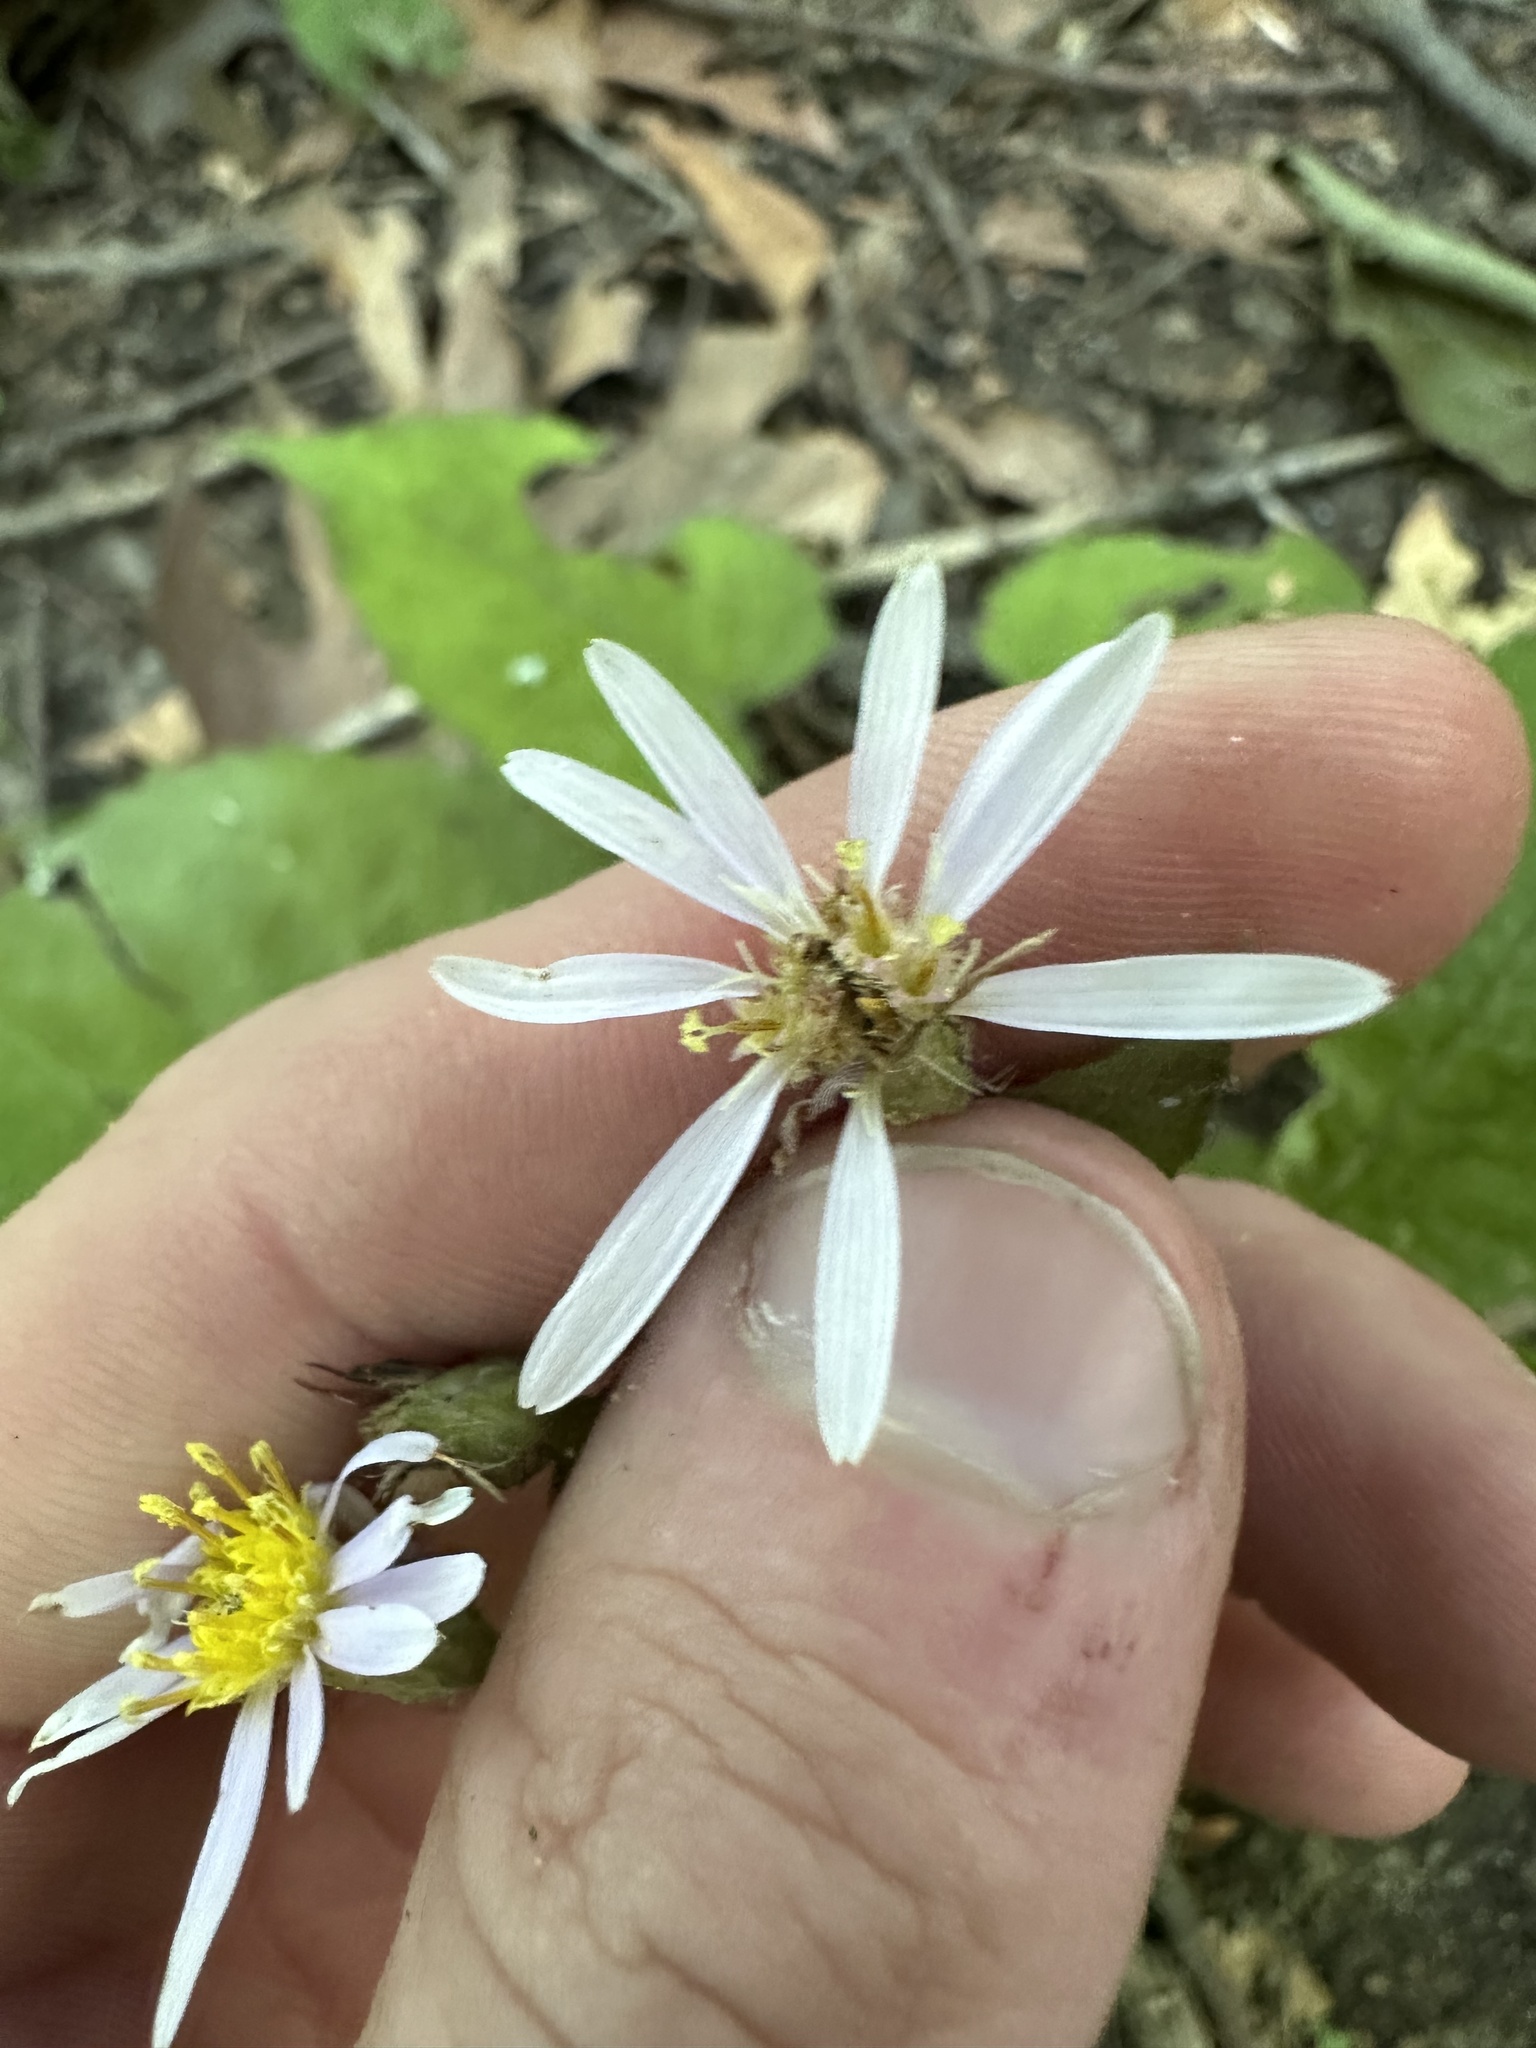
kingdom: Plantae
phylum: Tracheophyta
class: Magnoliopsida
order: Asterales
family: Asteraceae
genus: Eurybia
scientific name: Eurybia macrophylla
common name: Big-leaved aster
